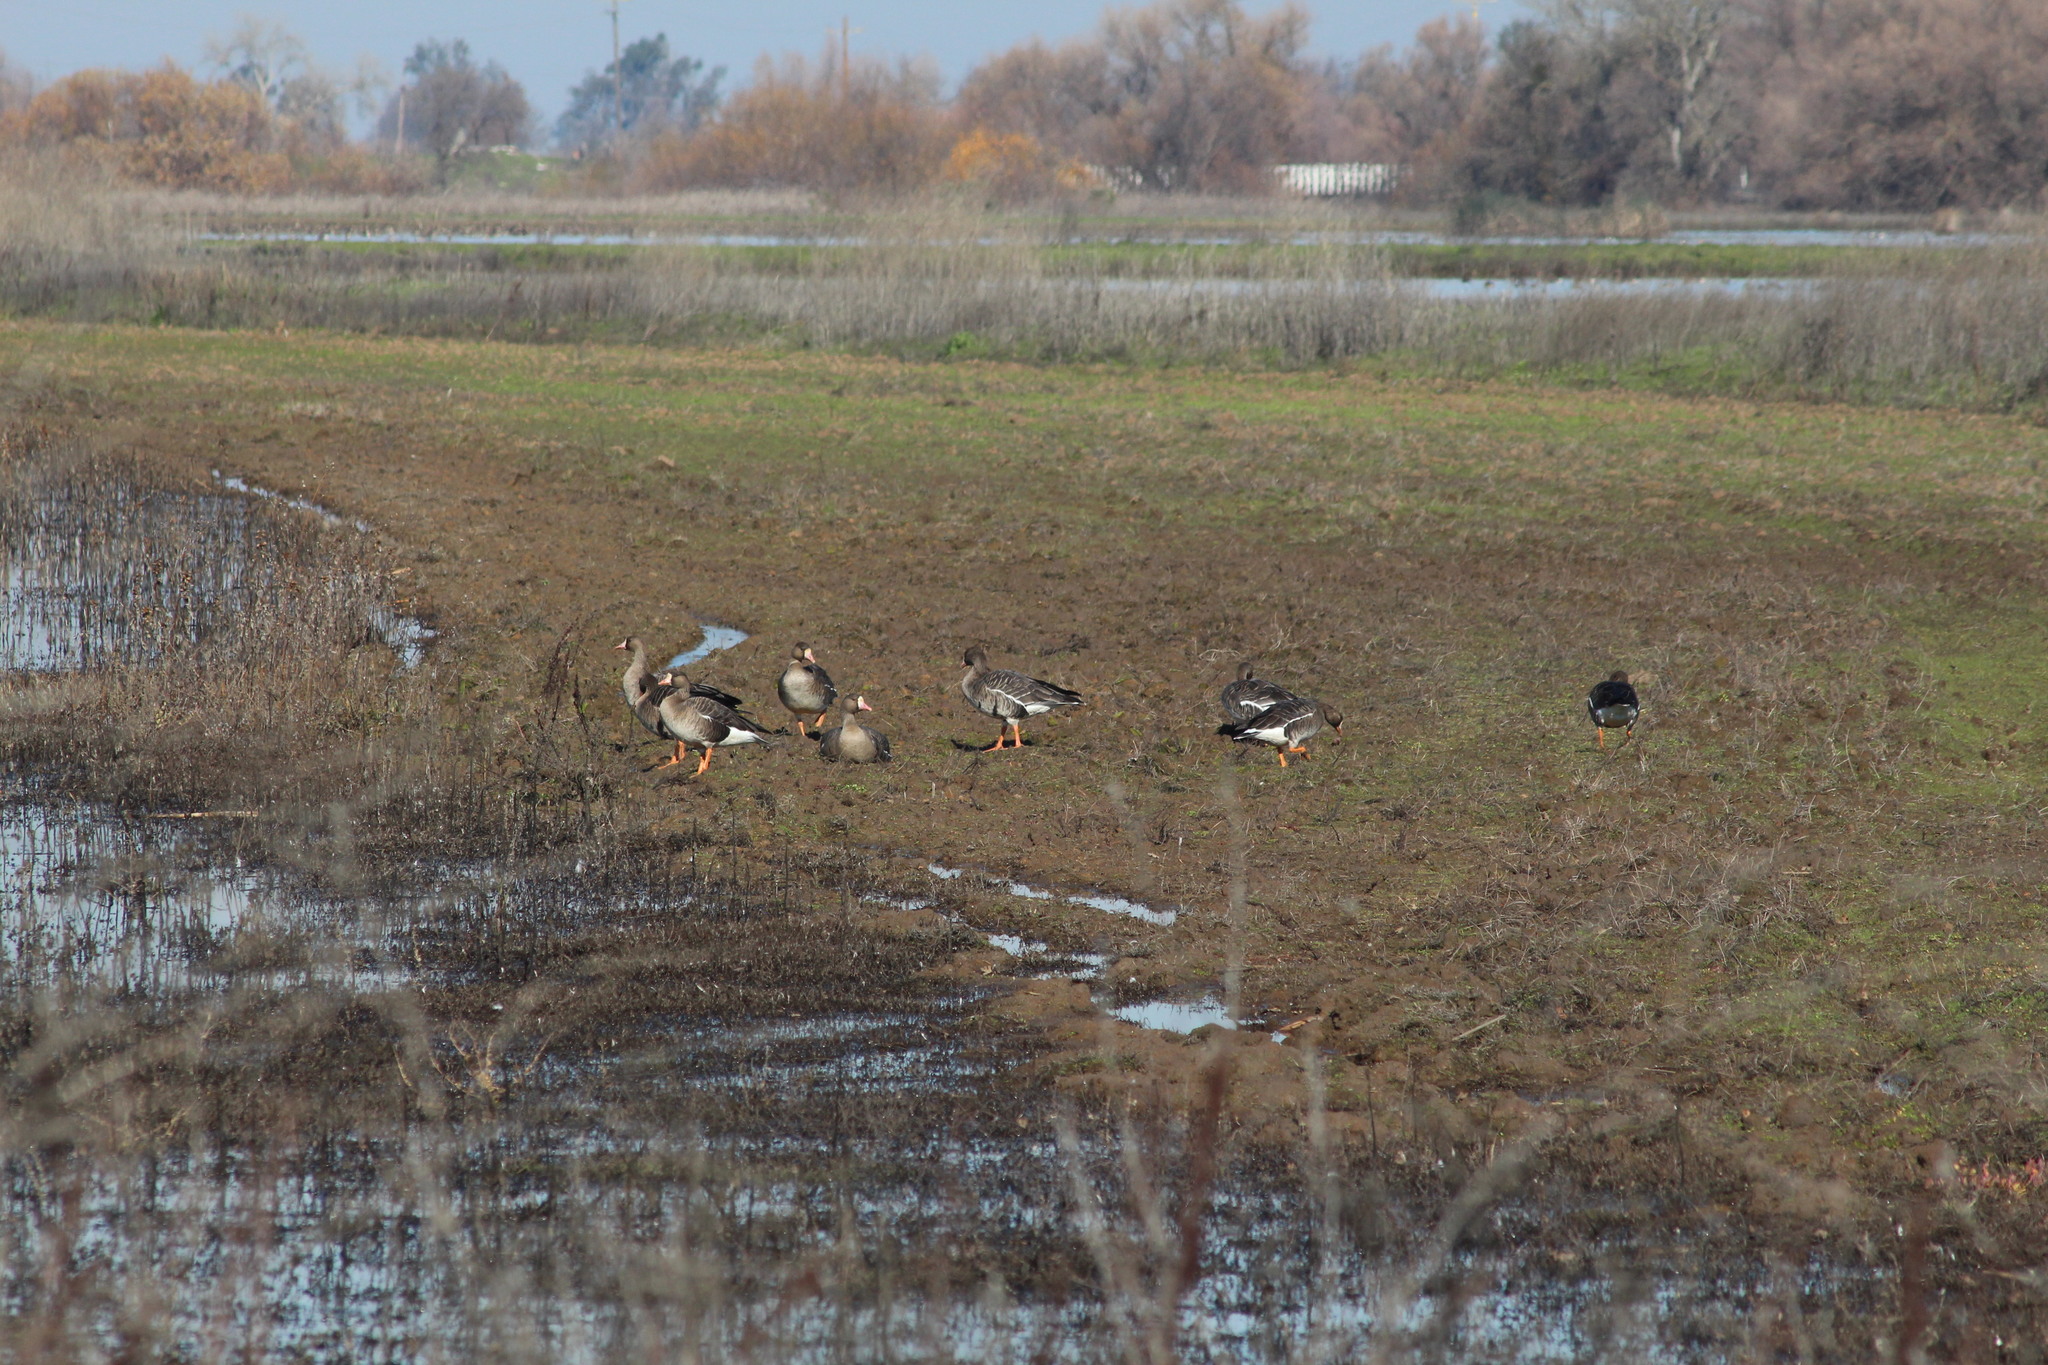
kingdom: Animalia
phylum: Chordata
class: Aves
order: Anseriformes
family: Anatidae
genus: Anser
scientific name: Anser albifrons
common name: Greater white-fronted goose
